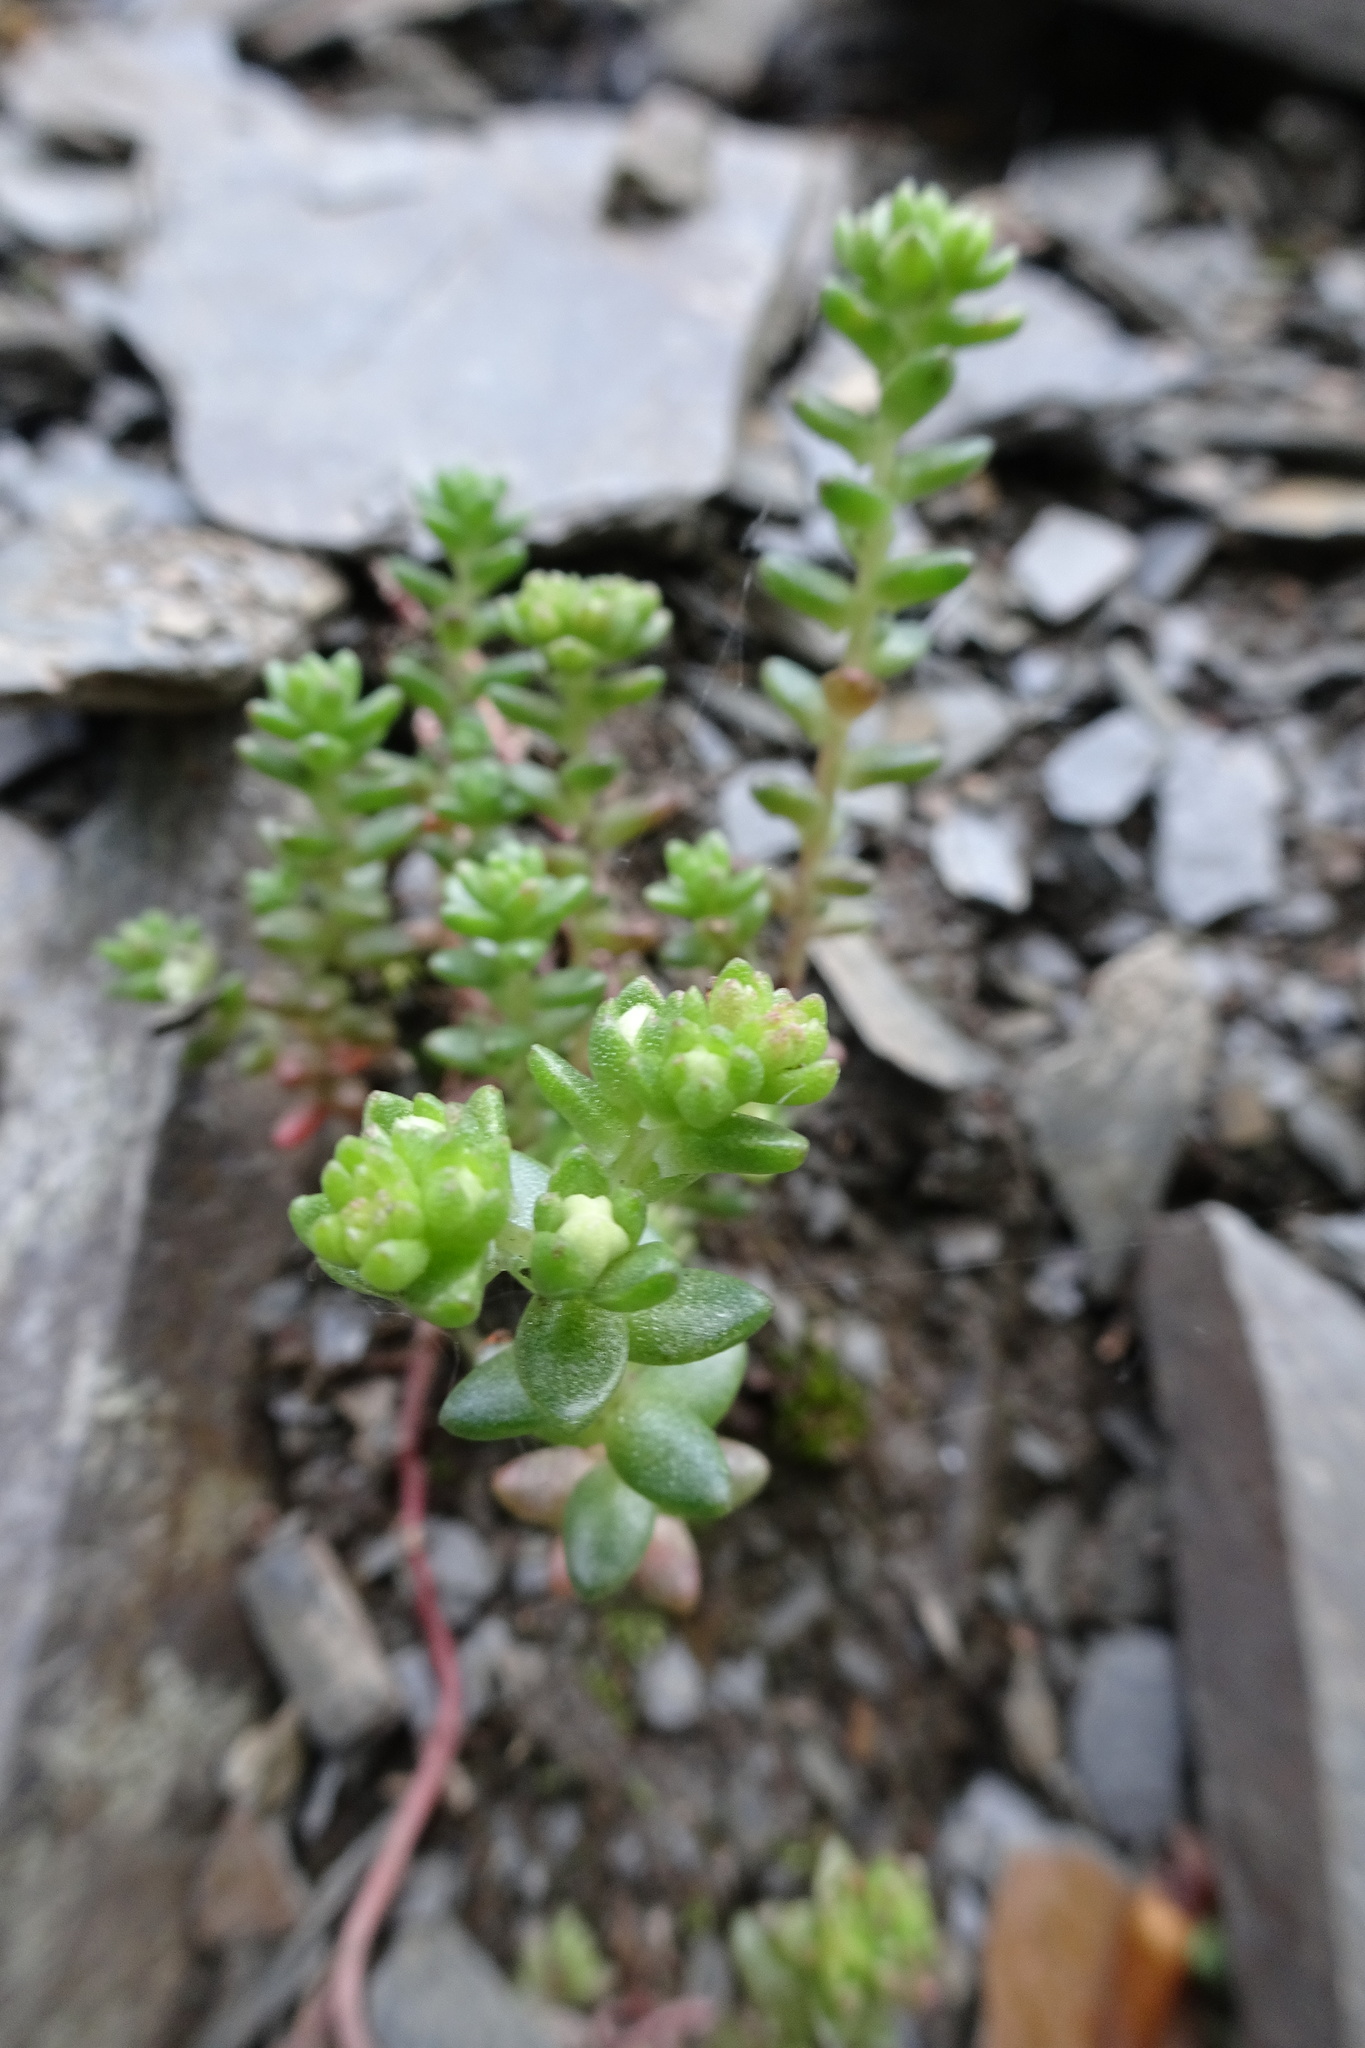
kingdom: Plantae
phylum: Tracheophyta
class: Magnoliopsida
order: Saxifragales
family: Crassulaceae
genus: Sedum
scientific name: Sedum anglicum
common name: English stonecrop
